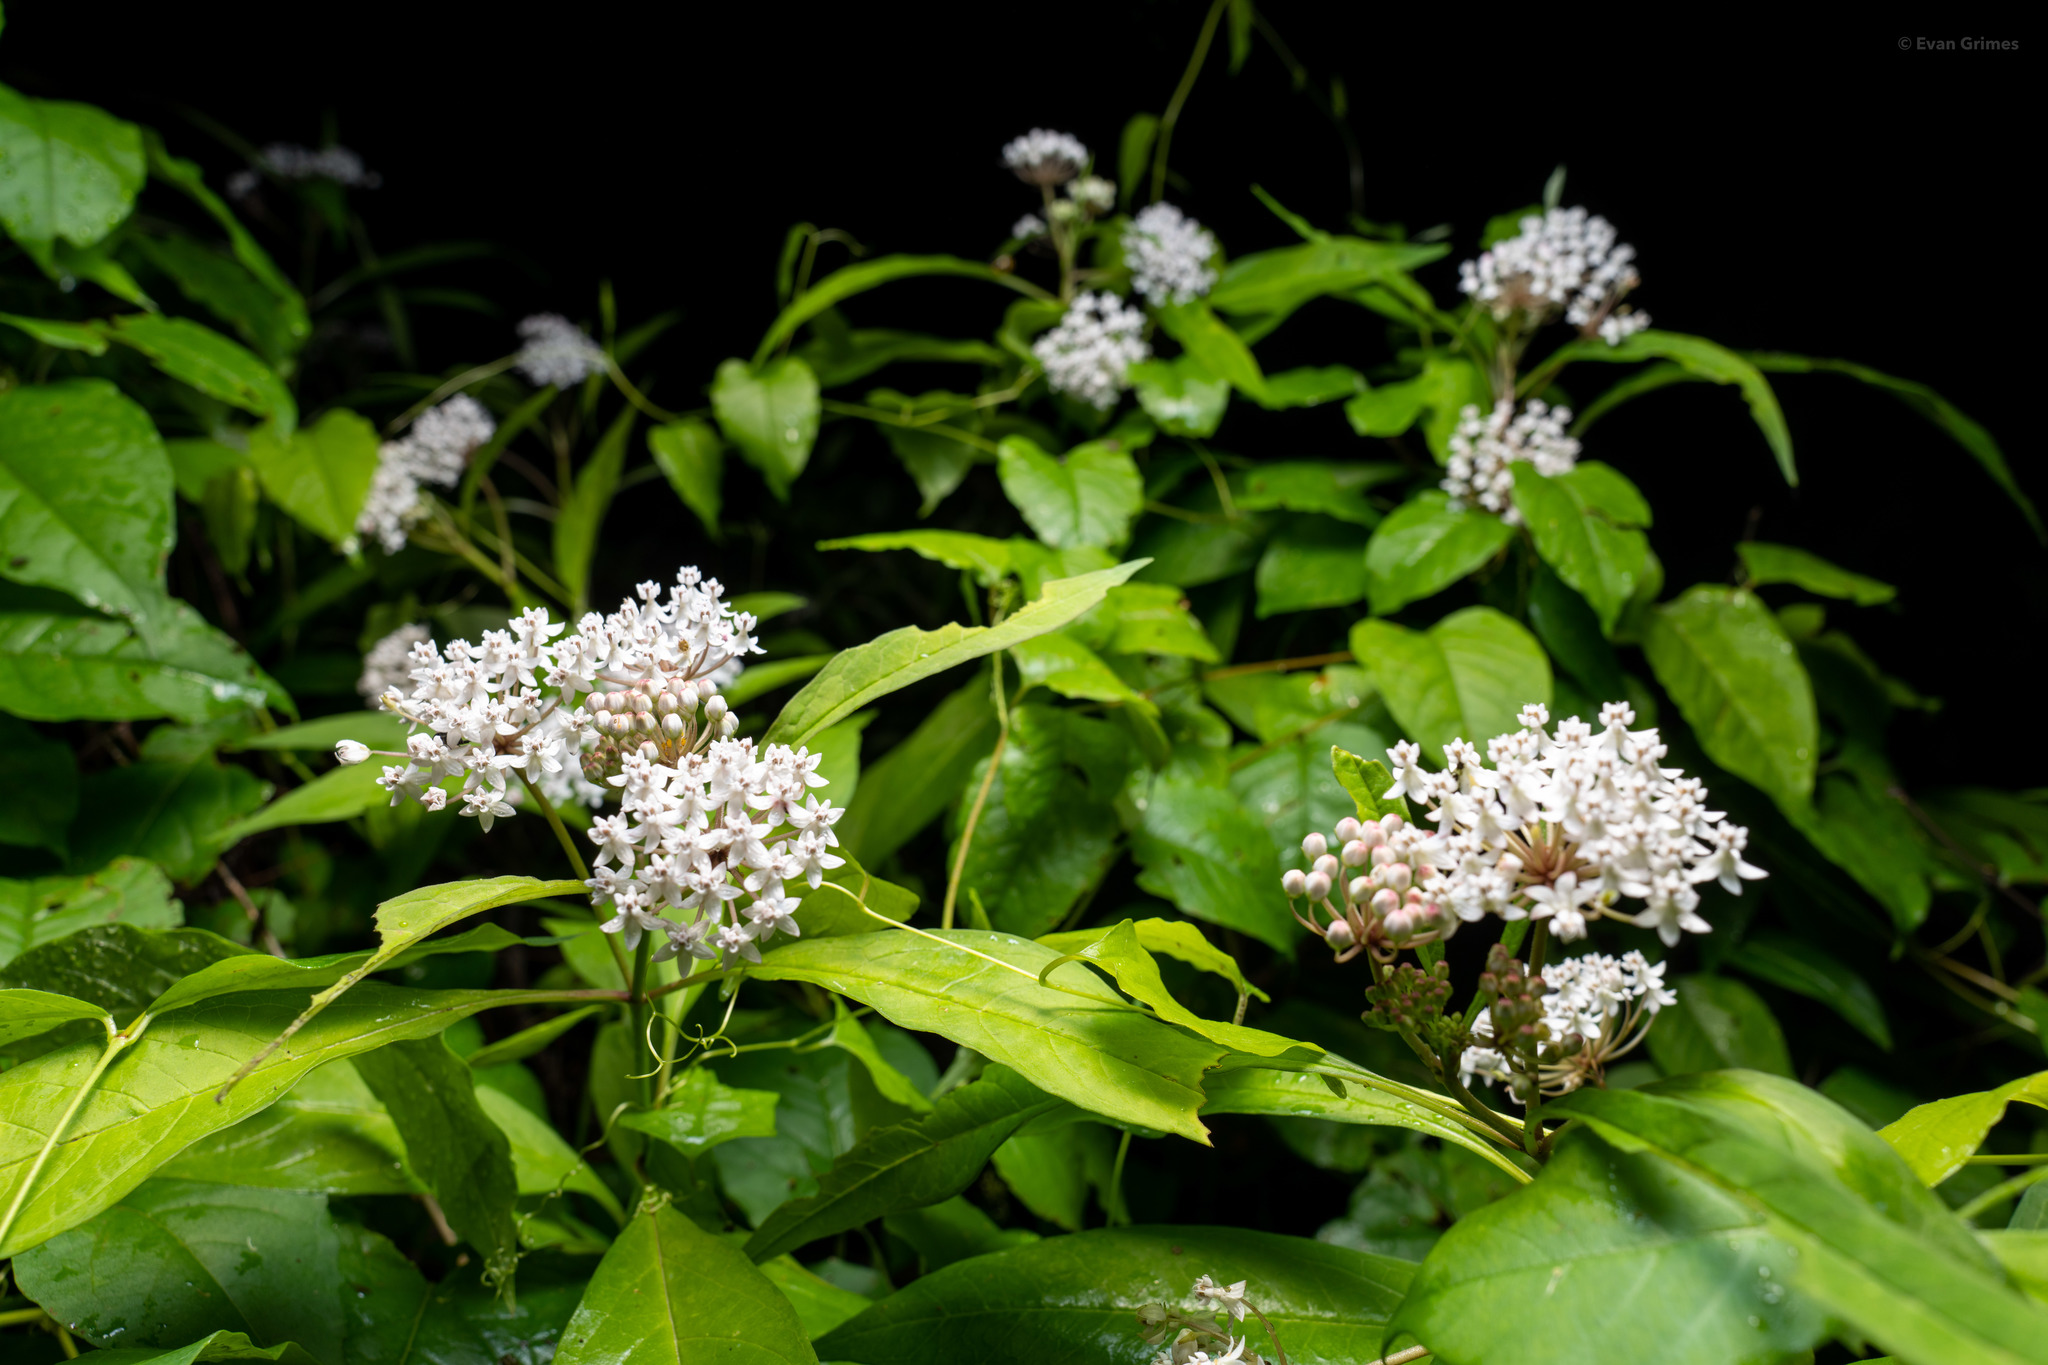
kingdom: Plantae
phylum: Tracheophyta
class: Magnoliopsida
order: Gentianales
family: Apocynaceae
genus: Asclepias
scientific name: Asclepias perennis
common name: Smooth-seed milkweed
